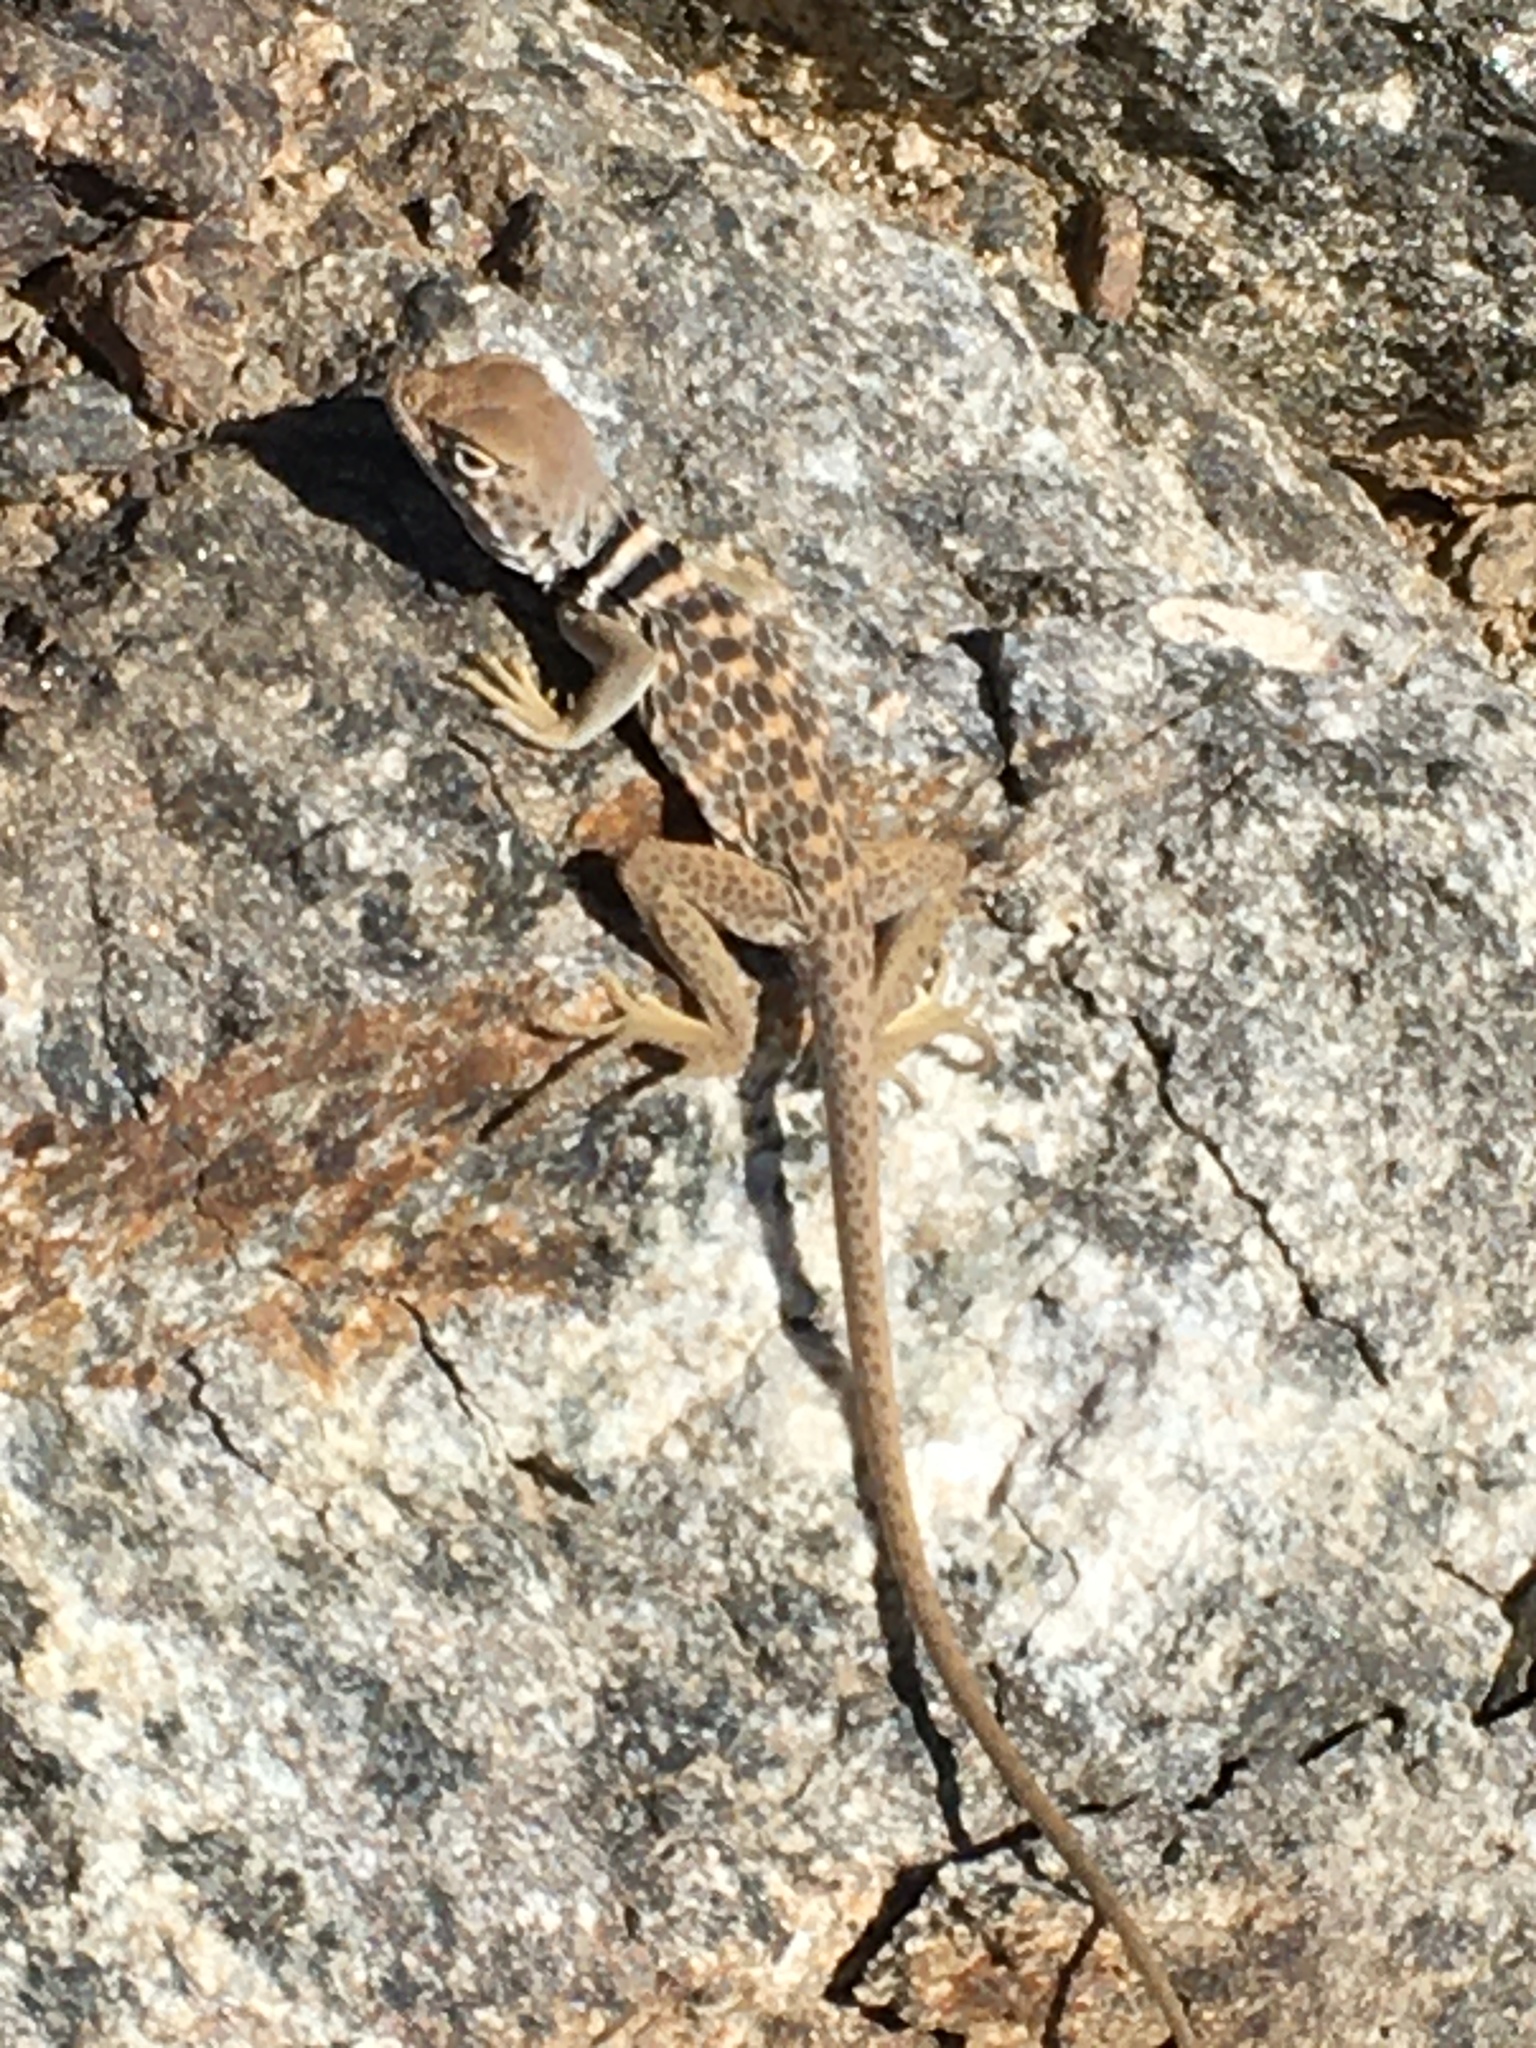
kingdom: Animalia
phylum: Chordata
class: Squamata
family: Crotaphytidae
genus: Crotaphytus
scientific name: Crotaphytus bicinctores
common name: Mojave black-collared lizard
